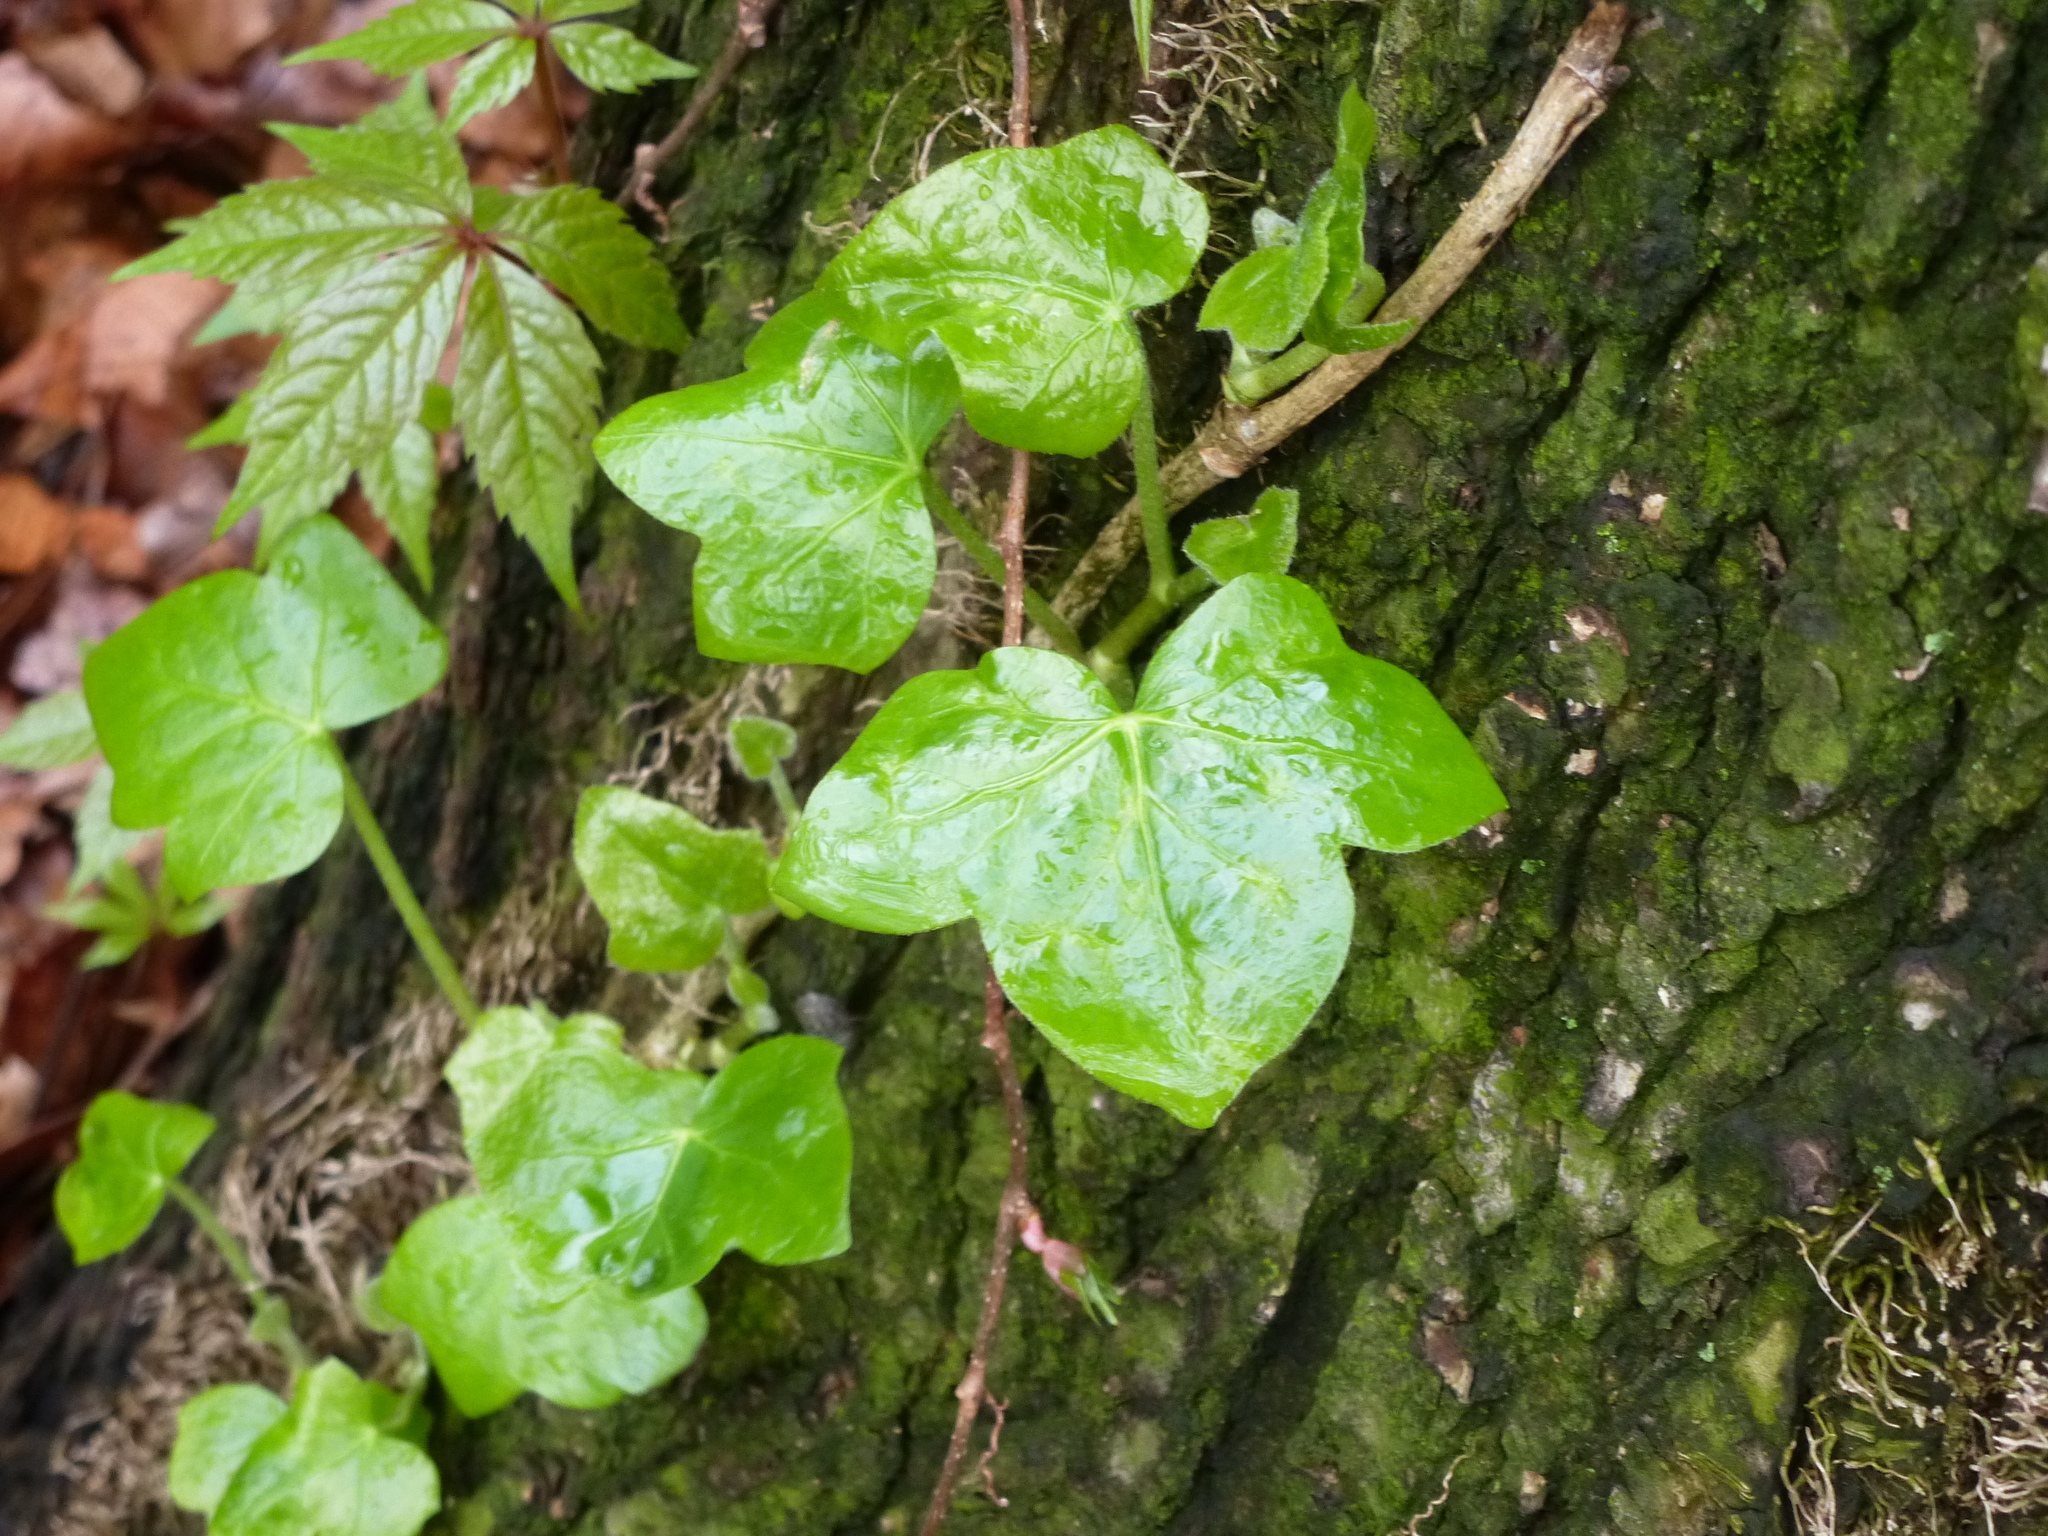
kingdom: Plantae
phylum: Tracheophyta
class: Magnoliopsida
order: Apiales
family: Araliaceae
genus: Hedera
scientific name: Hedera
